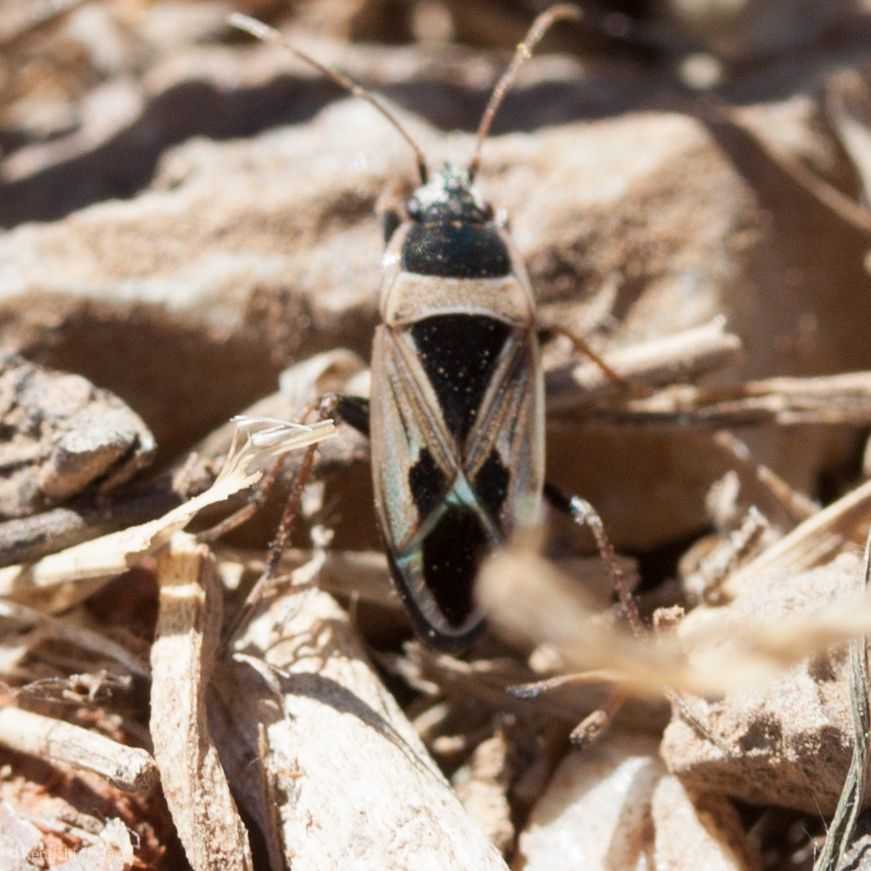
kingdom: Animalia
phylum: Arthropoda
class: Insecta
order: Hemiptera
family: Rhyparochromidae
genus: Xanthochilus
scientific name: Xanthochilus saturnius
